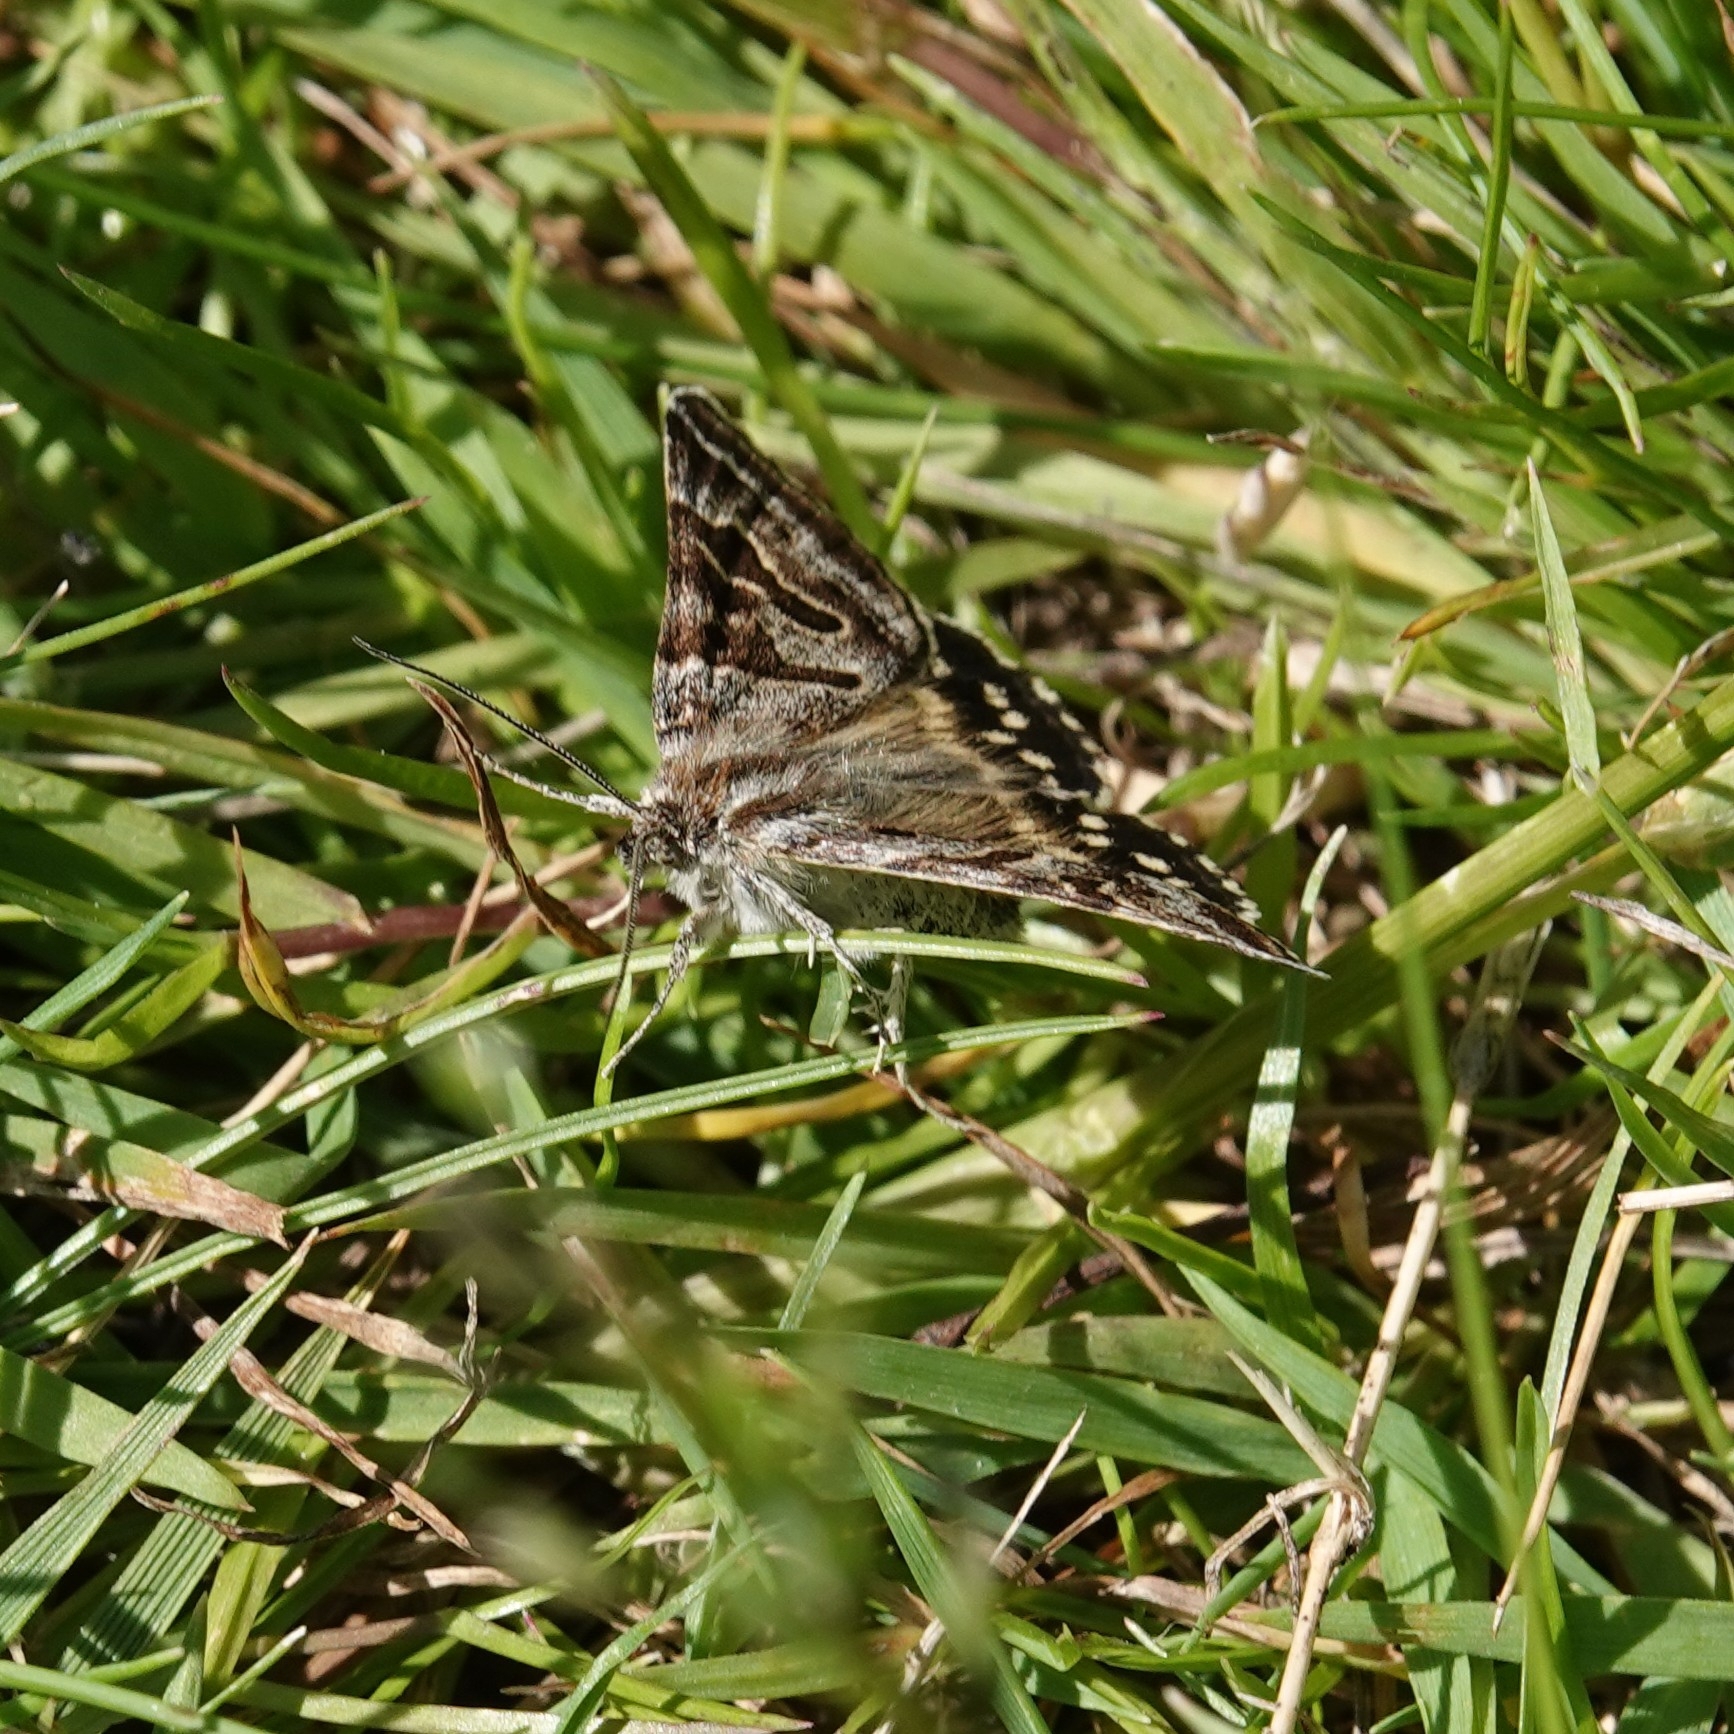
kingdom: Animalia
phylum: Arthropoda
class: Insecta
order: Lepidoptera
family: Erebidae
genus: Callistege
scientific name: Callistege mi
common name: Mother shipton
